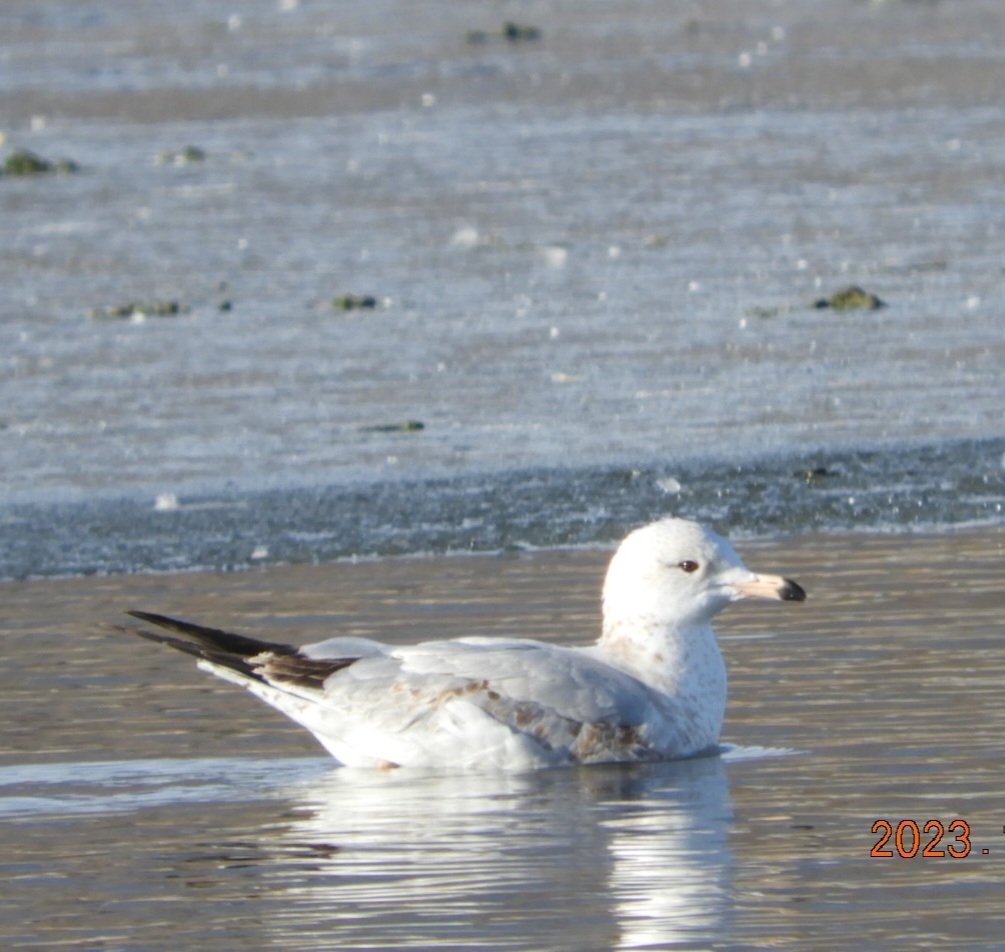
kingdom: Animalia
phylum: Chordata
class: Aves
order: Charadriiformes
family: Laridae
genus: Larus
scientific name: Larus delawarensis
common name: Ring-billed gull
